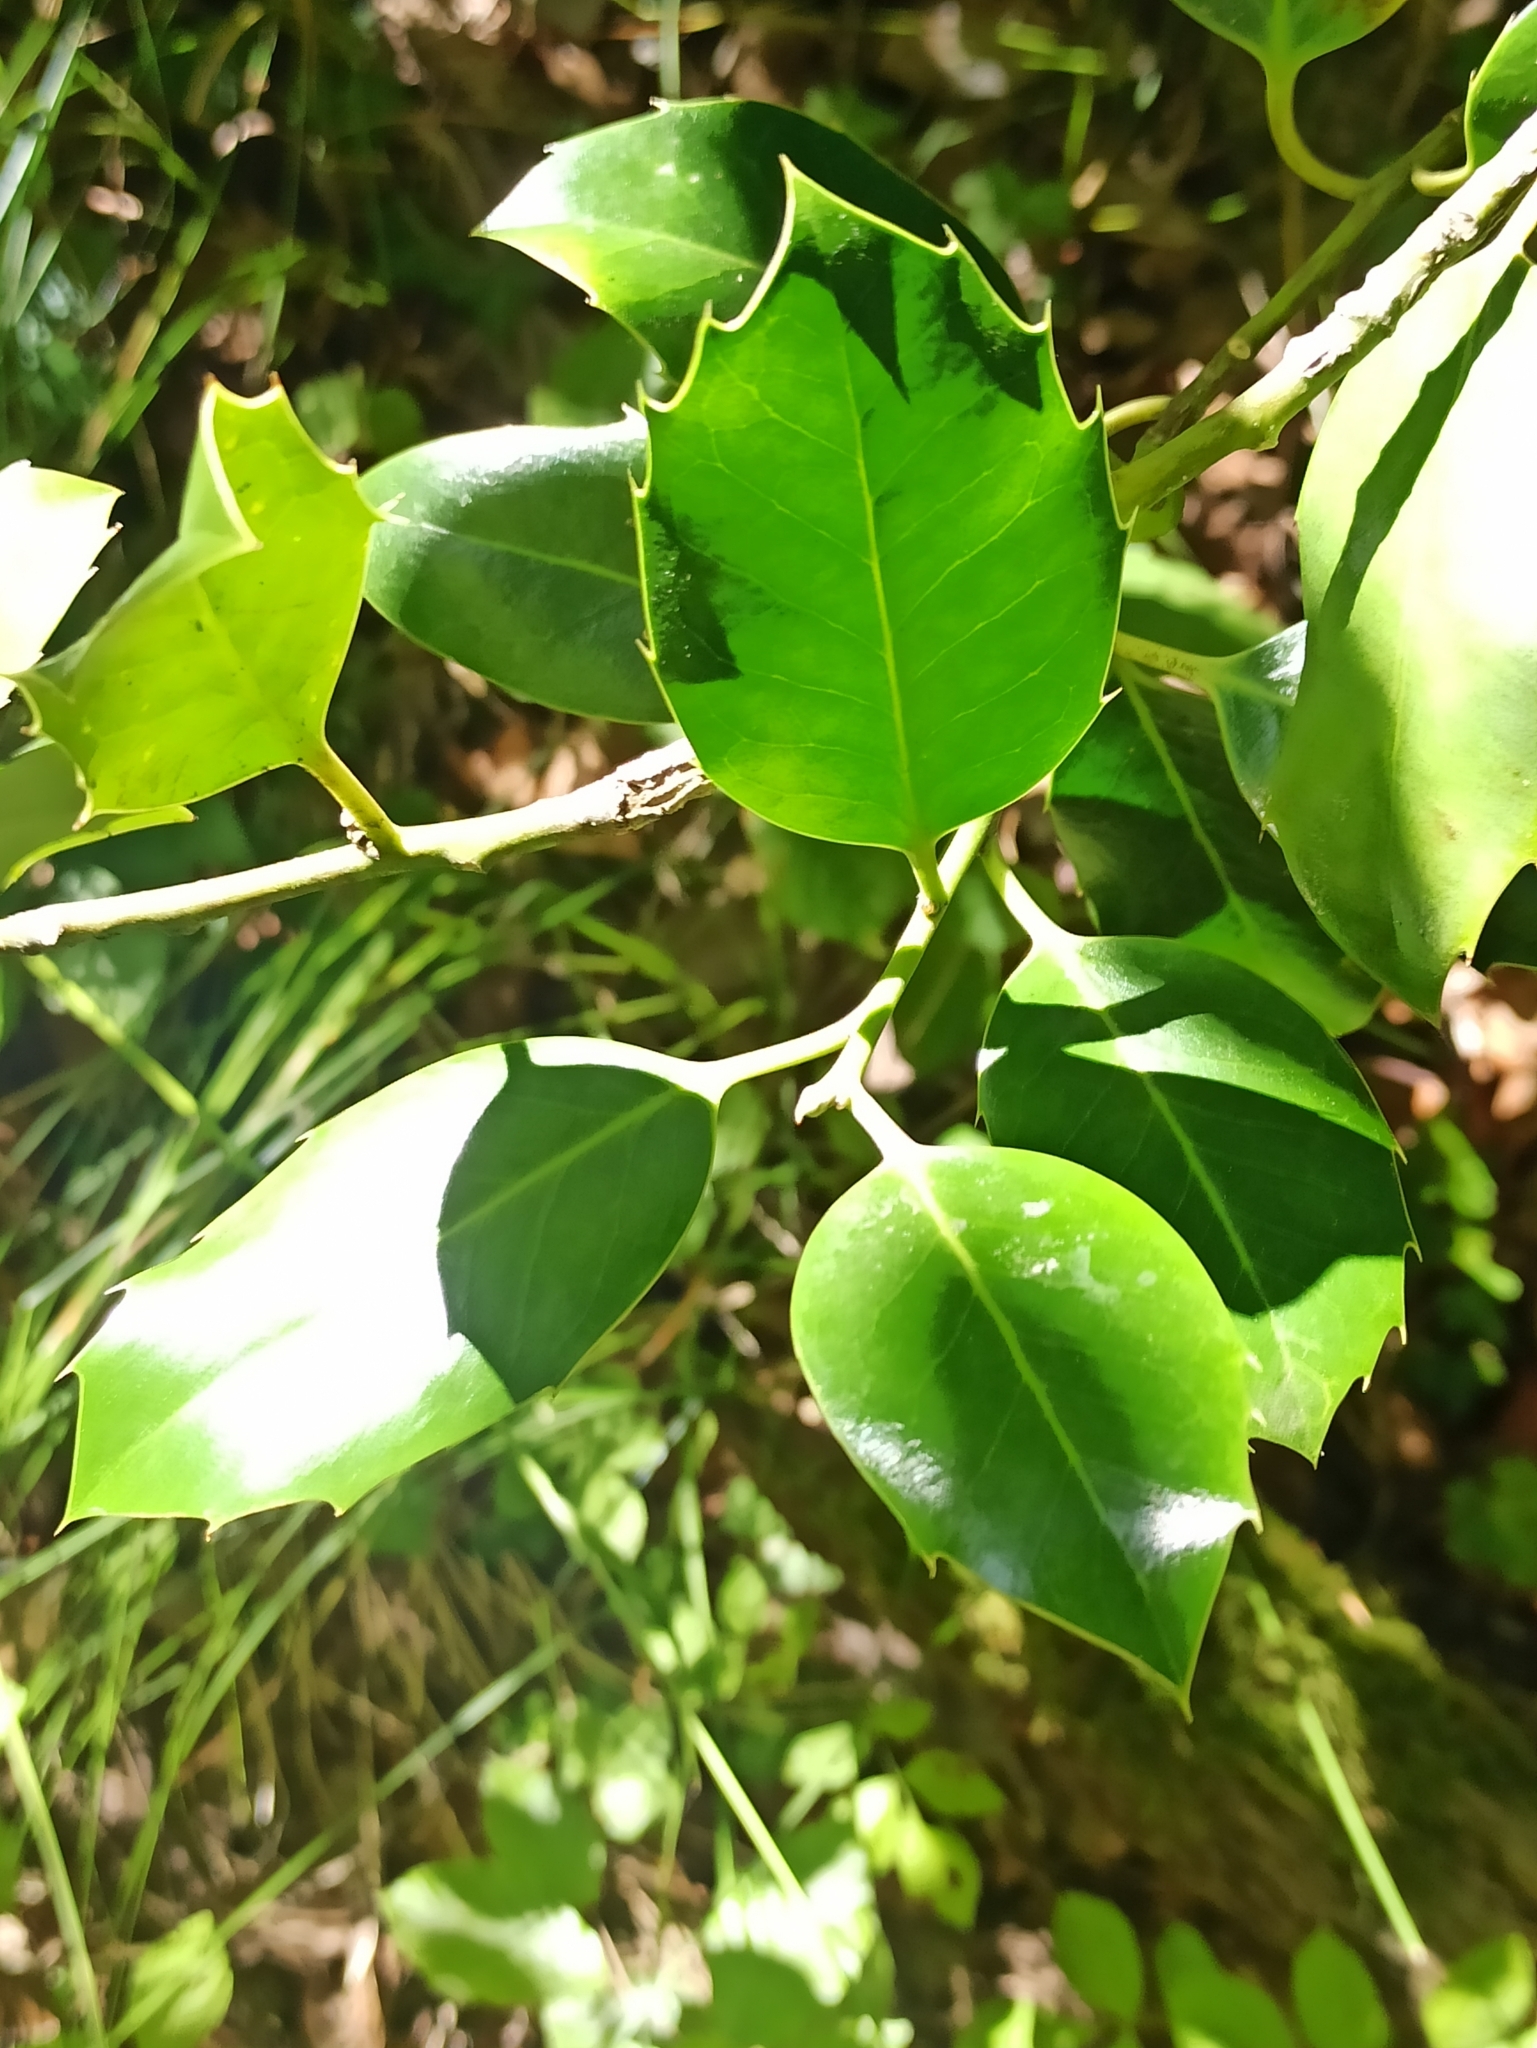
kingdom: Plantae
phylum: Tracheophyta
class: Magnoliopsida
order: Aquifoliales
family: Aquifoliaceae
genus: Ilex
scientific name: Ilex aquifolium
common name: English holly
